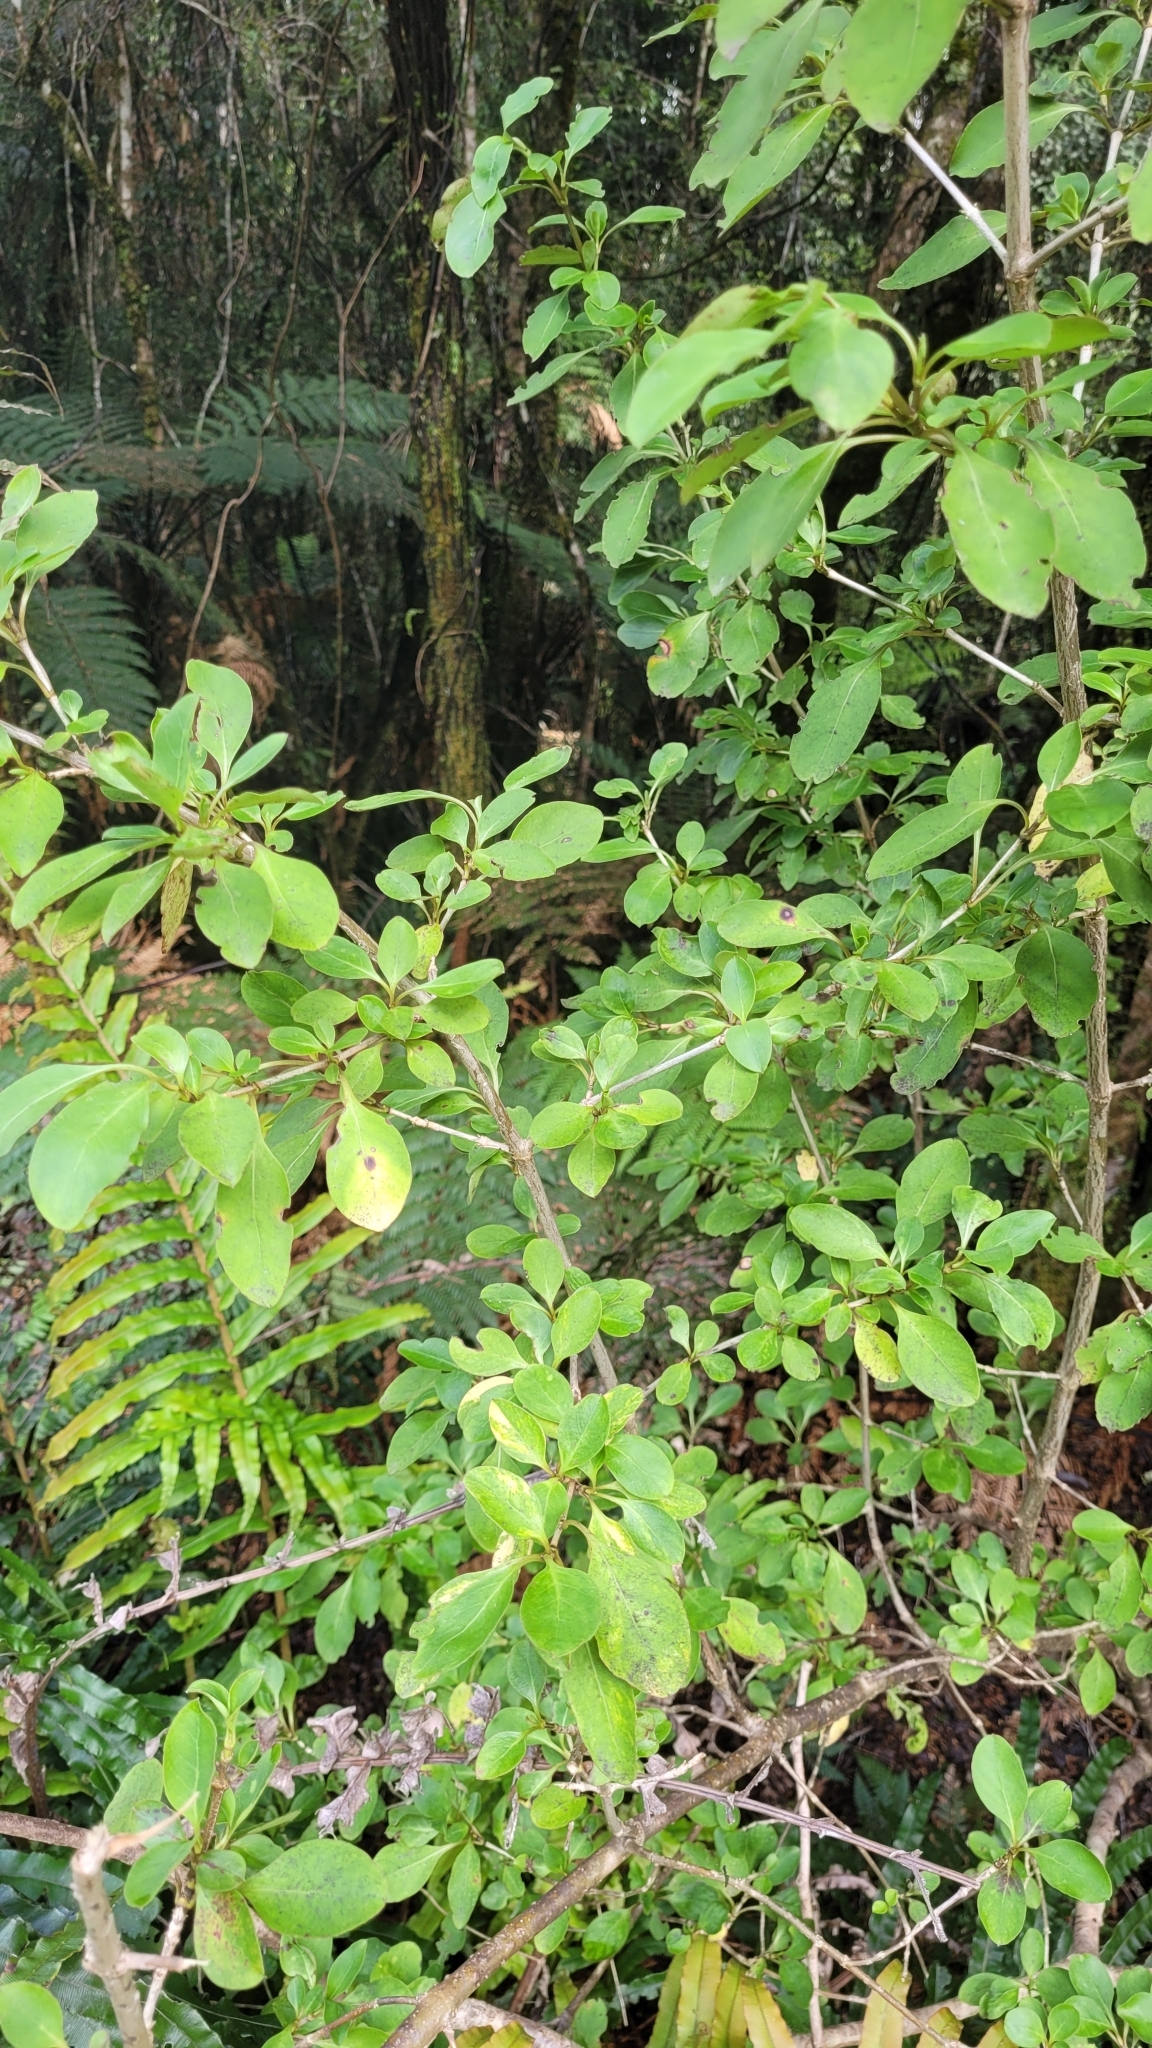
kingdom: Plantae
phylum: Tracheophyta
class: Magnoliopsida
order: Gentianales
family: Rubiaceae
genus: Coprosma
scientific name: Coprosma foetidissima
